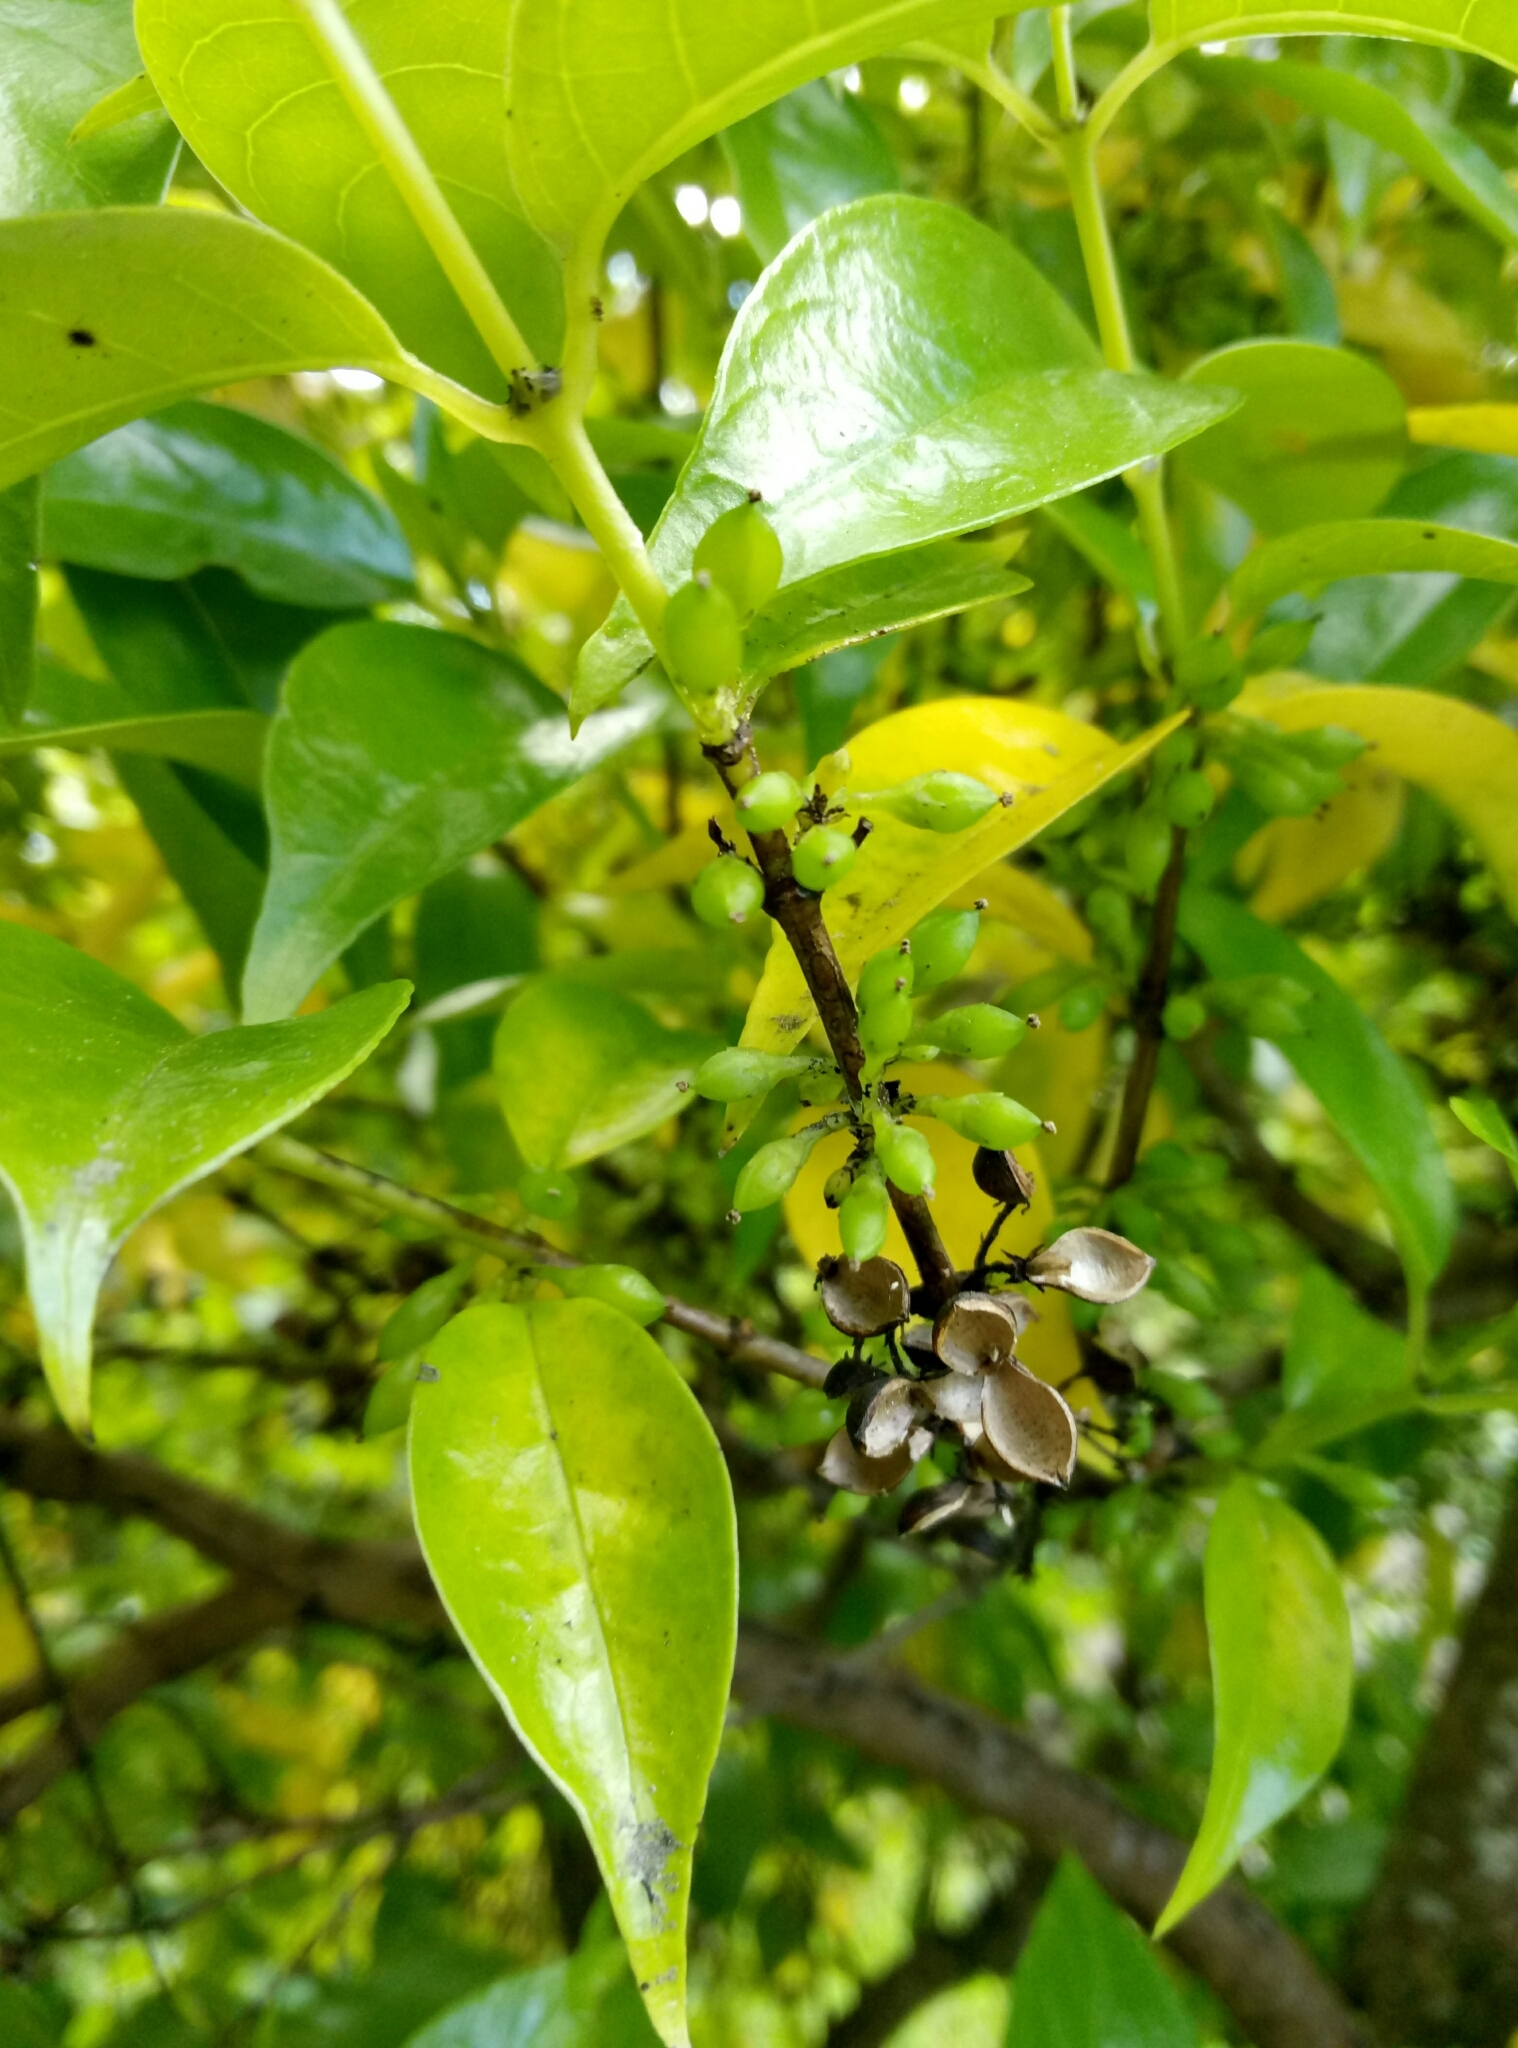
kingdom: Plantae
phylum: Tracheophyta
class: Magnoliopsida
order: Gentianales
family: Loganiaceae
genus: Geniostoma
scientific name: Geniostoma ligustrifolium
